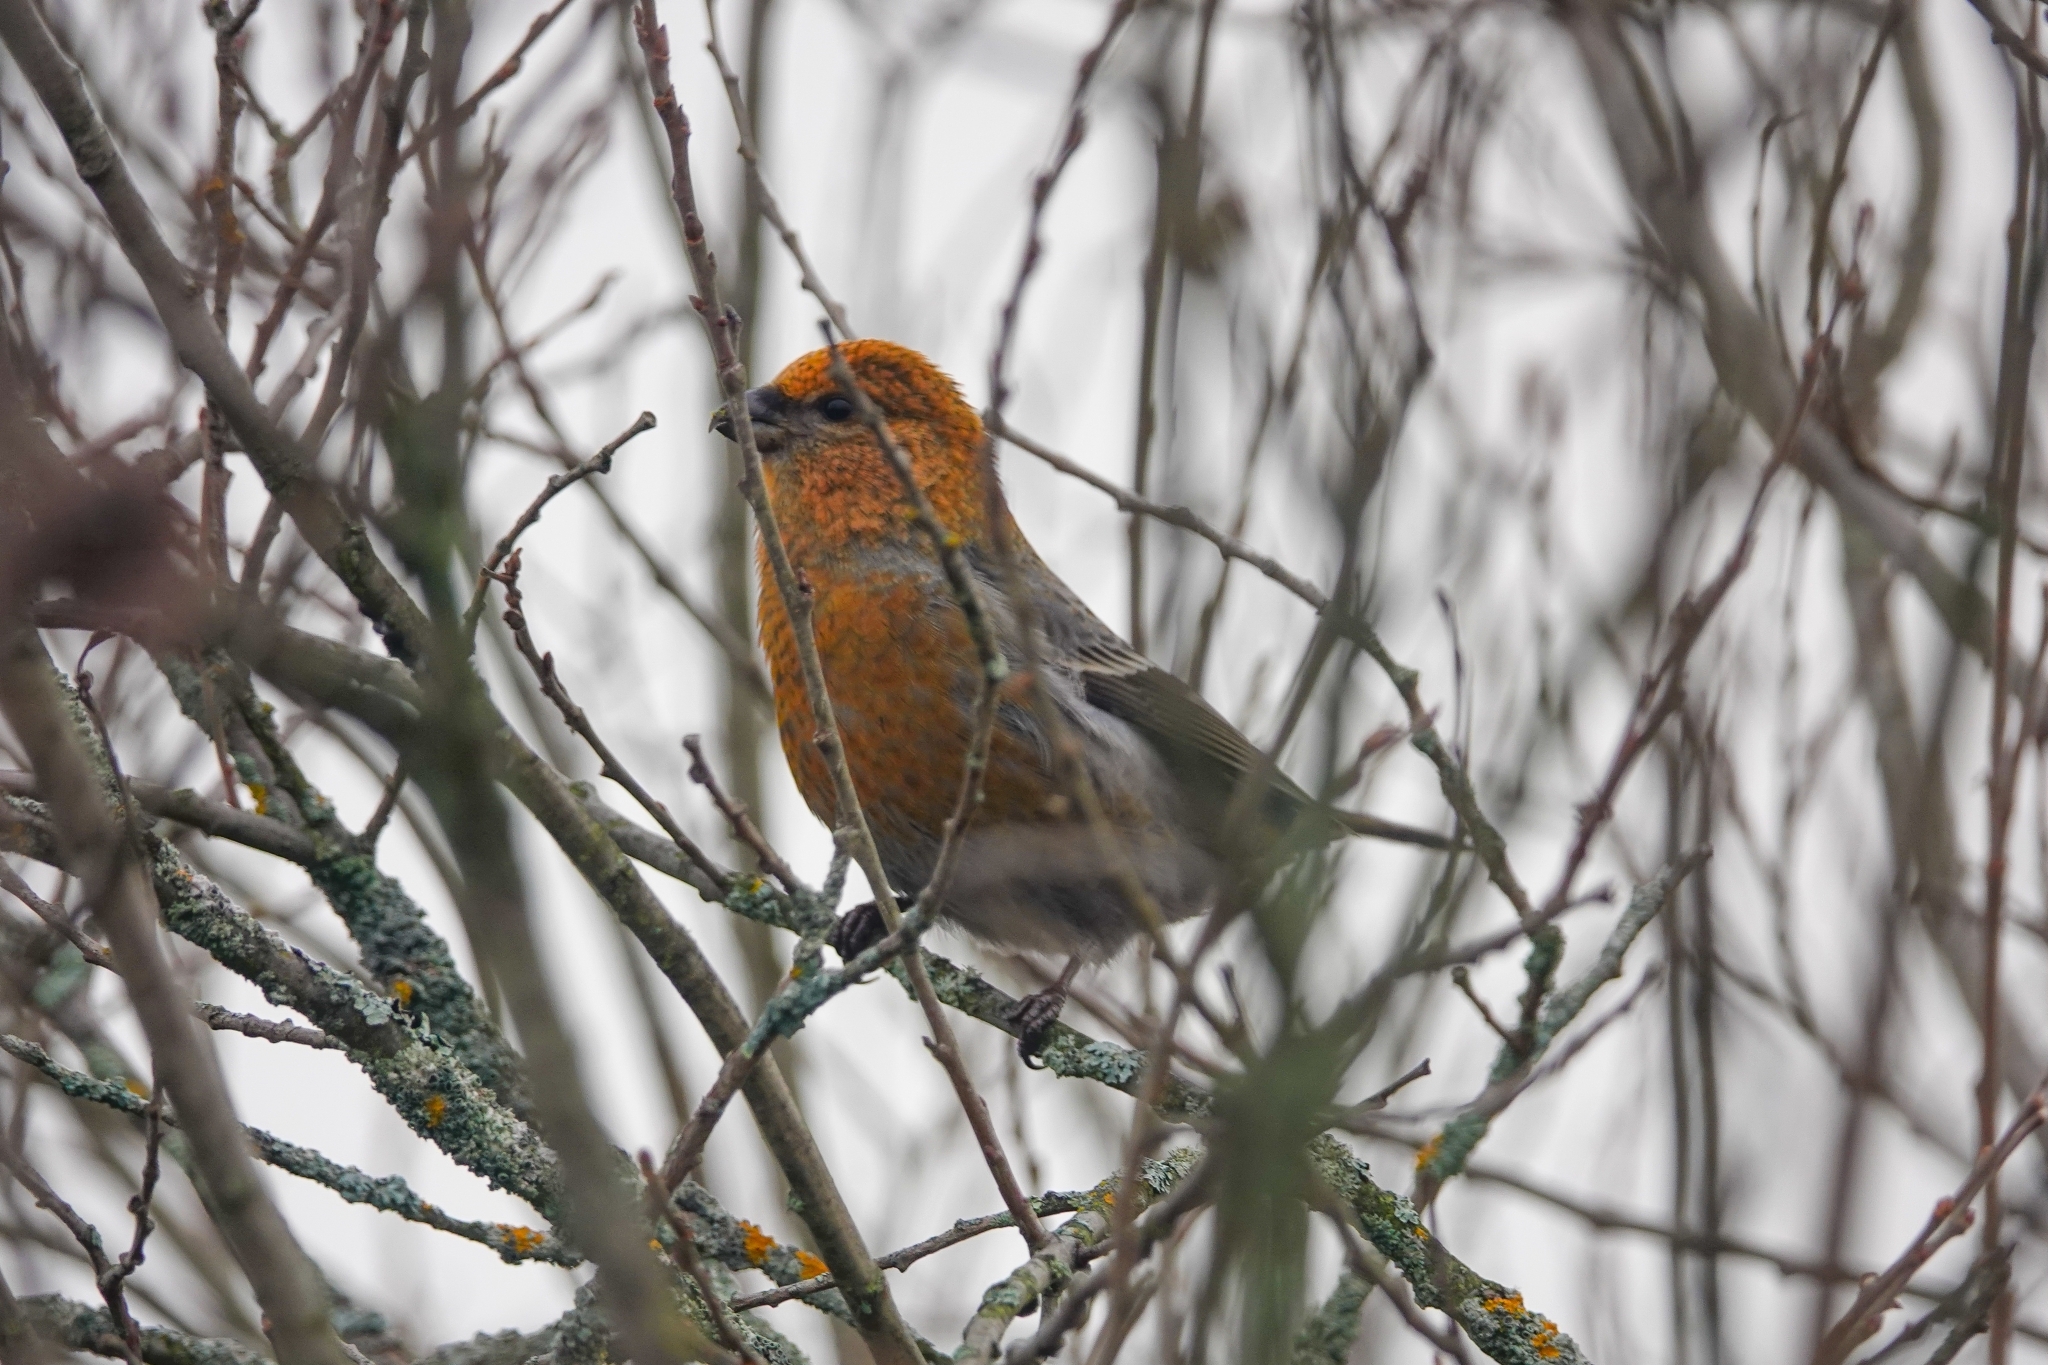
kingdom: Animalia
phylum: Chordata
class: Aves
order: Passeriformes
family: Fringillidae
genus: Pinicola
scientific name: Pinicola enucleator
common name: Pine grosbeak
